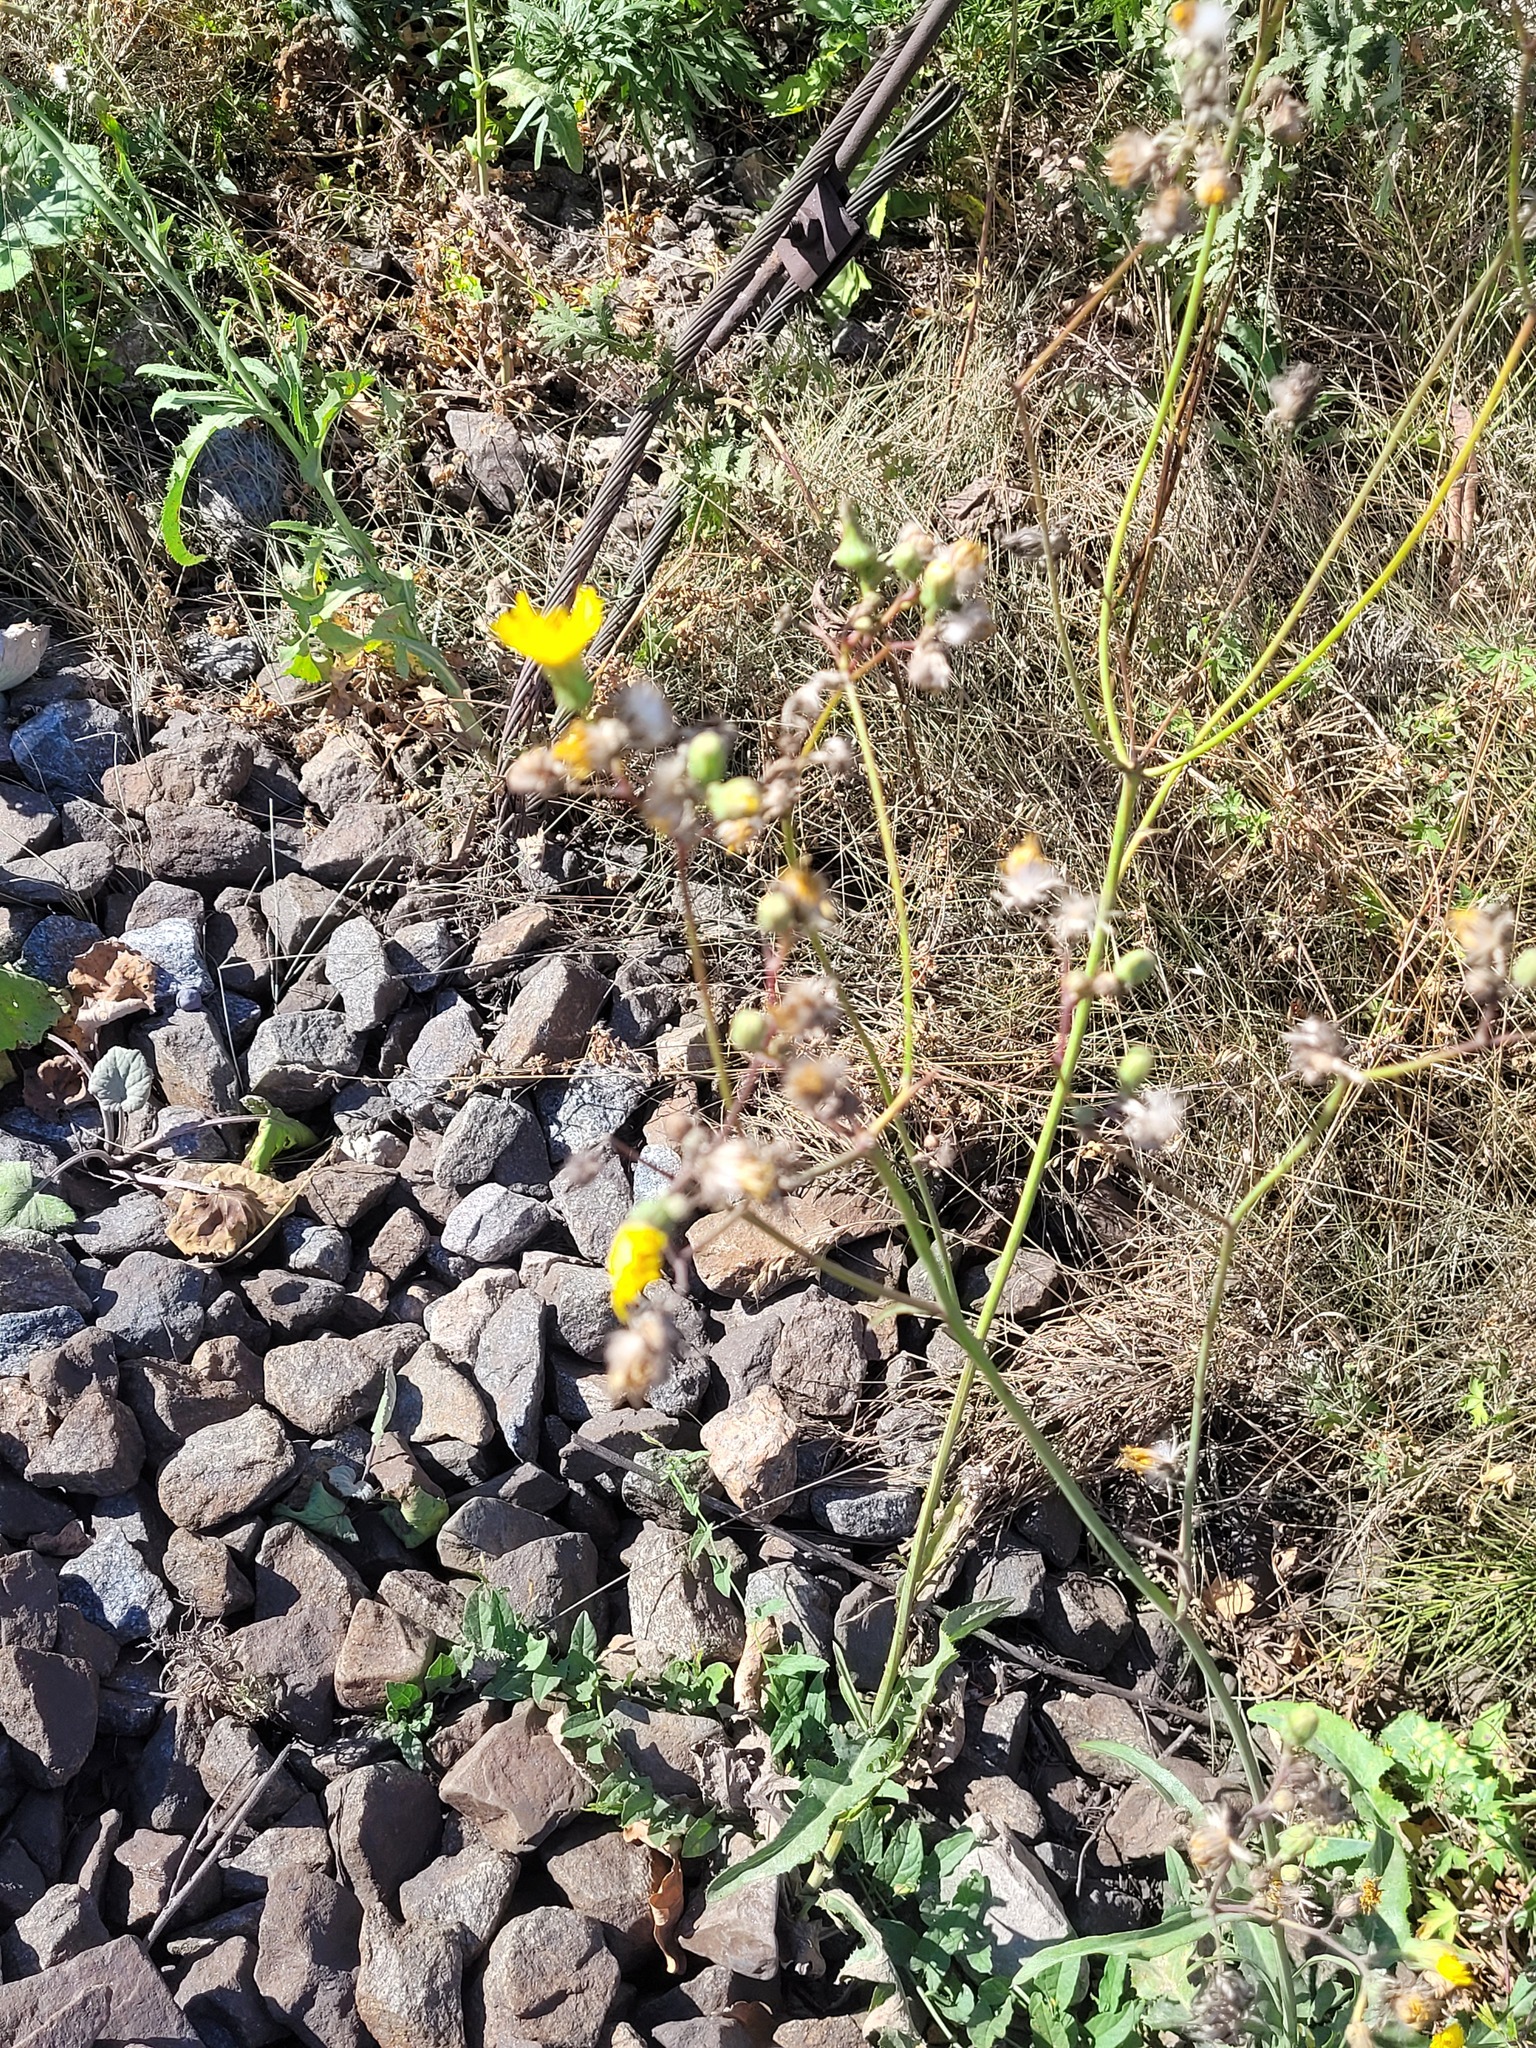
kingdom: Plantae
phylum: Tracheophyta
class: Magnoliopsida
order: Asterales
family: Asteraceae
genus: Sonchus
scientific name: Sonchus arvensis
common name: Perennial sow-thistle
